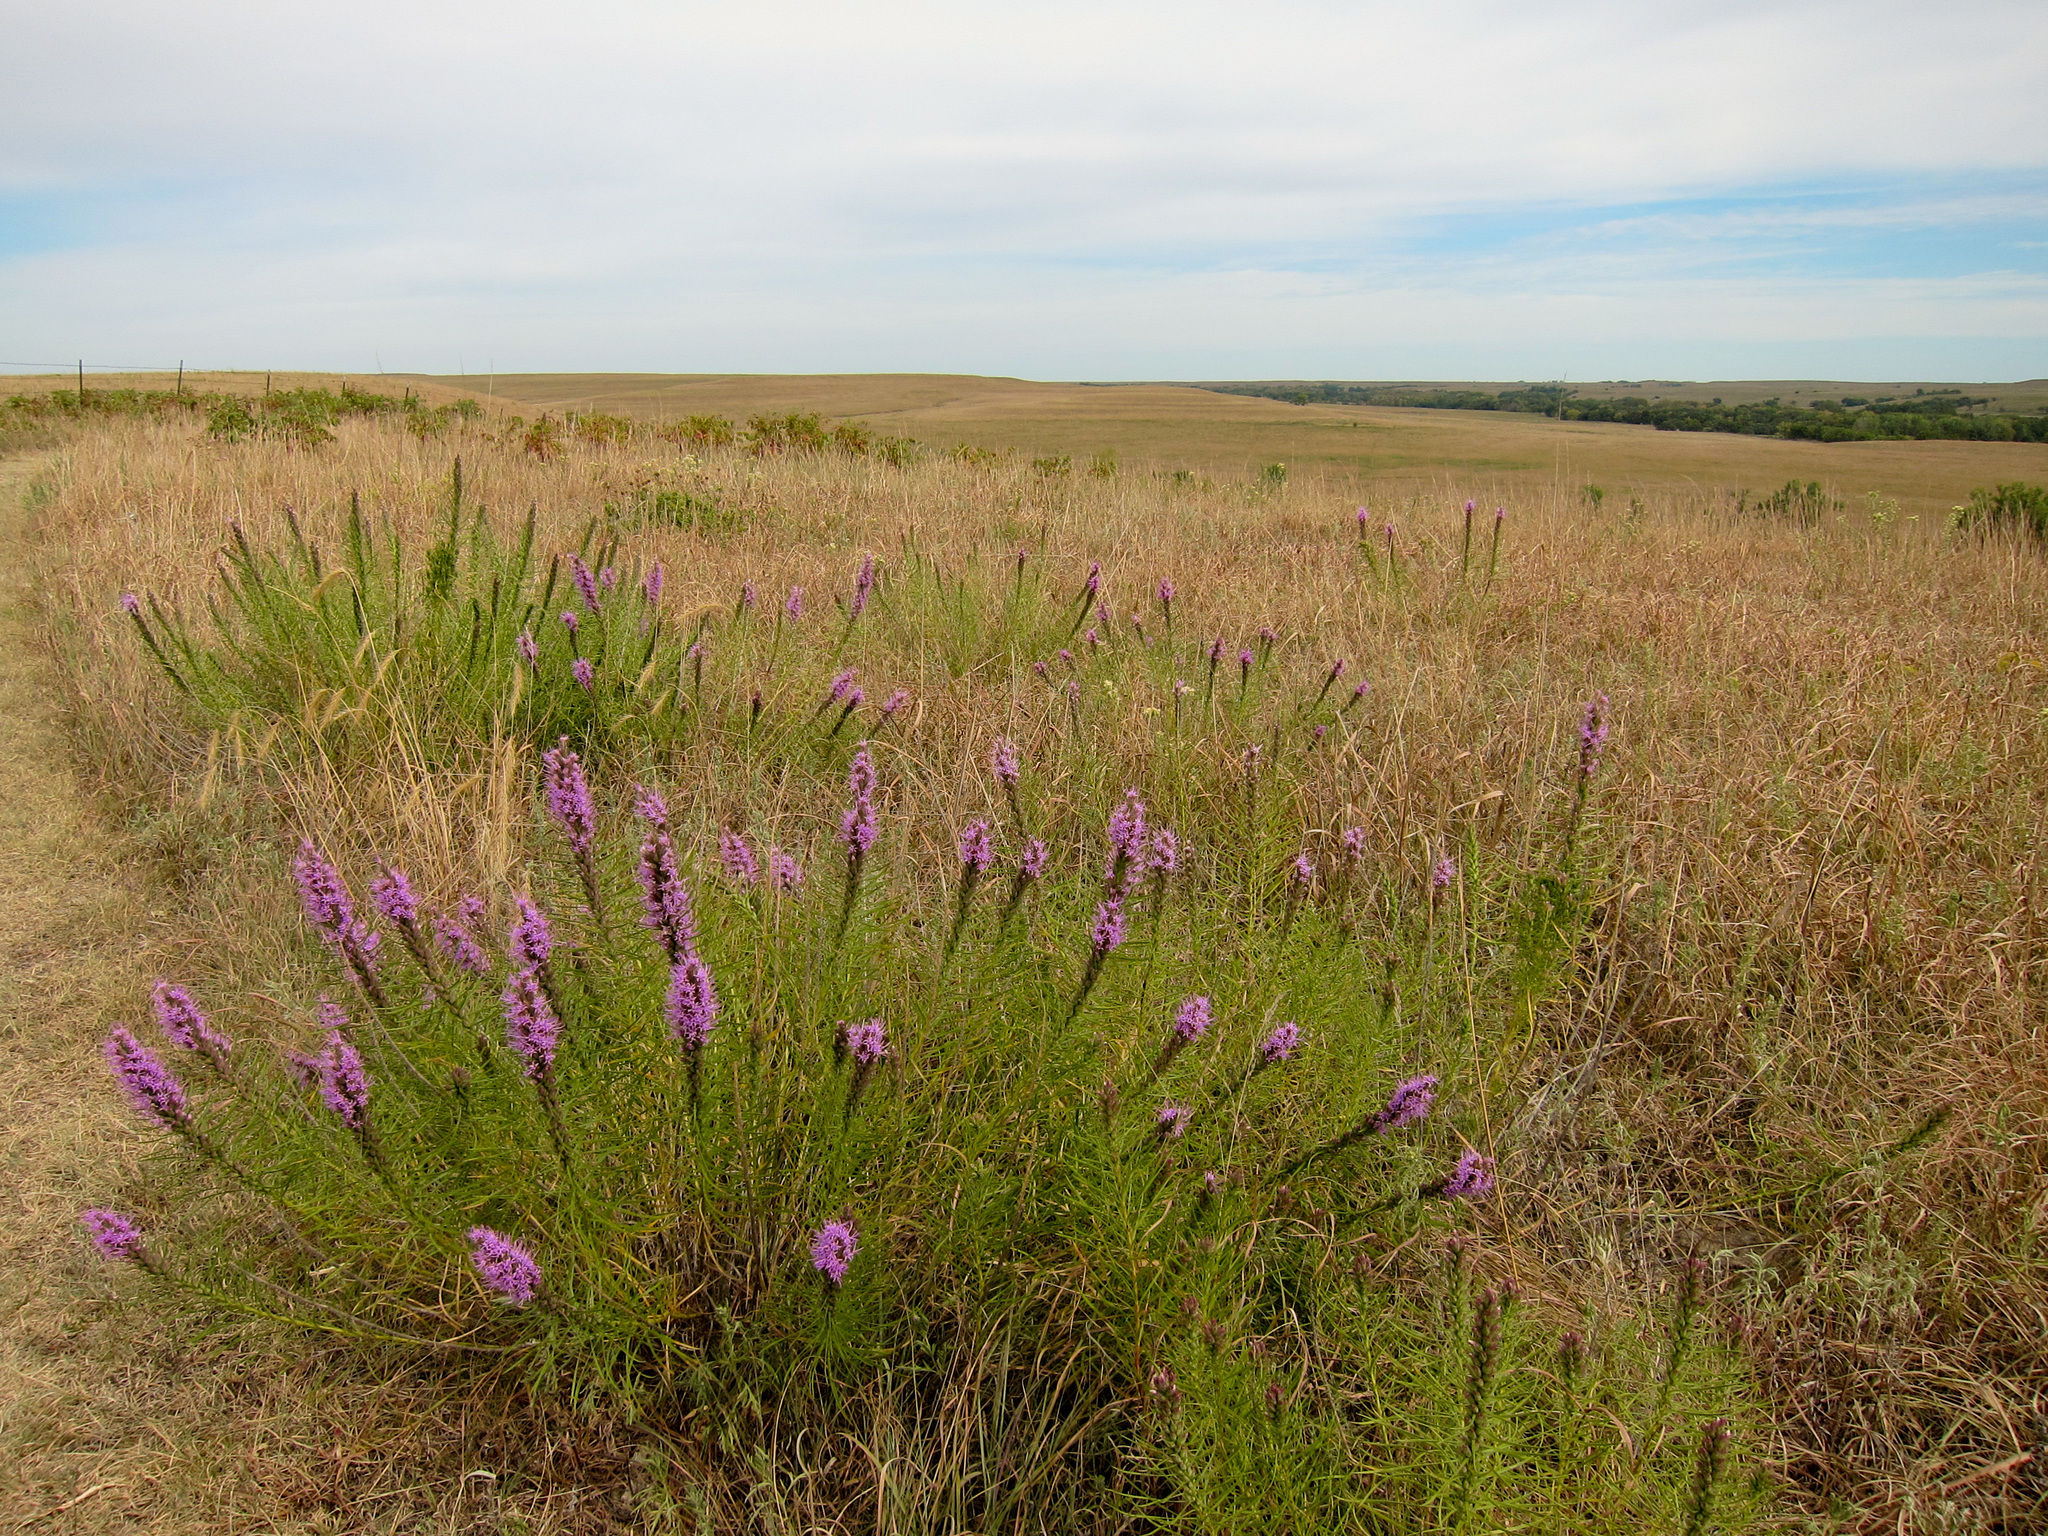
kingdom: Plantae
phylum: Tracheophyta
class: Magnoliopsida
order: Asterales
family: Asteraceae
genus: Liatris
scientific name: Liatris punctata
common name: Dotted gayfeather
